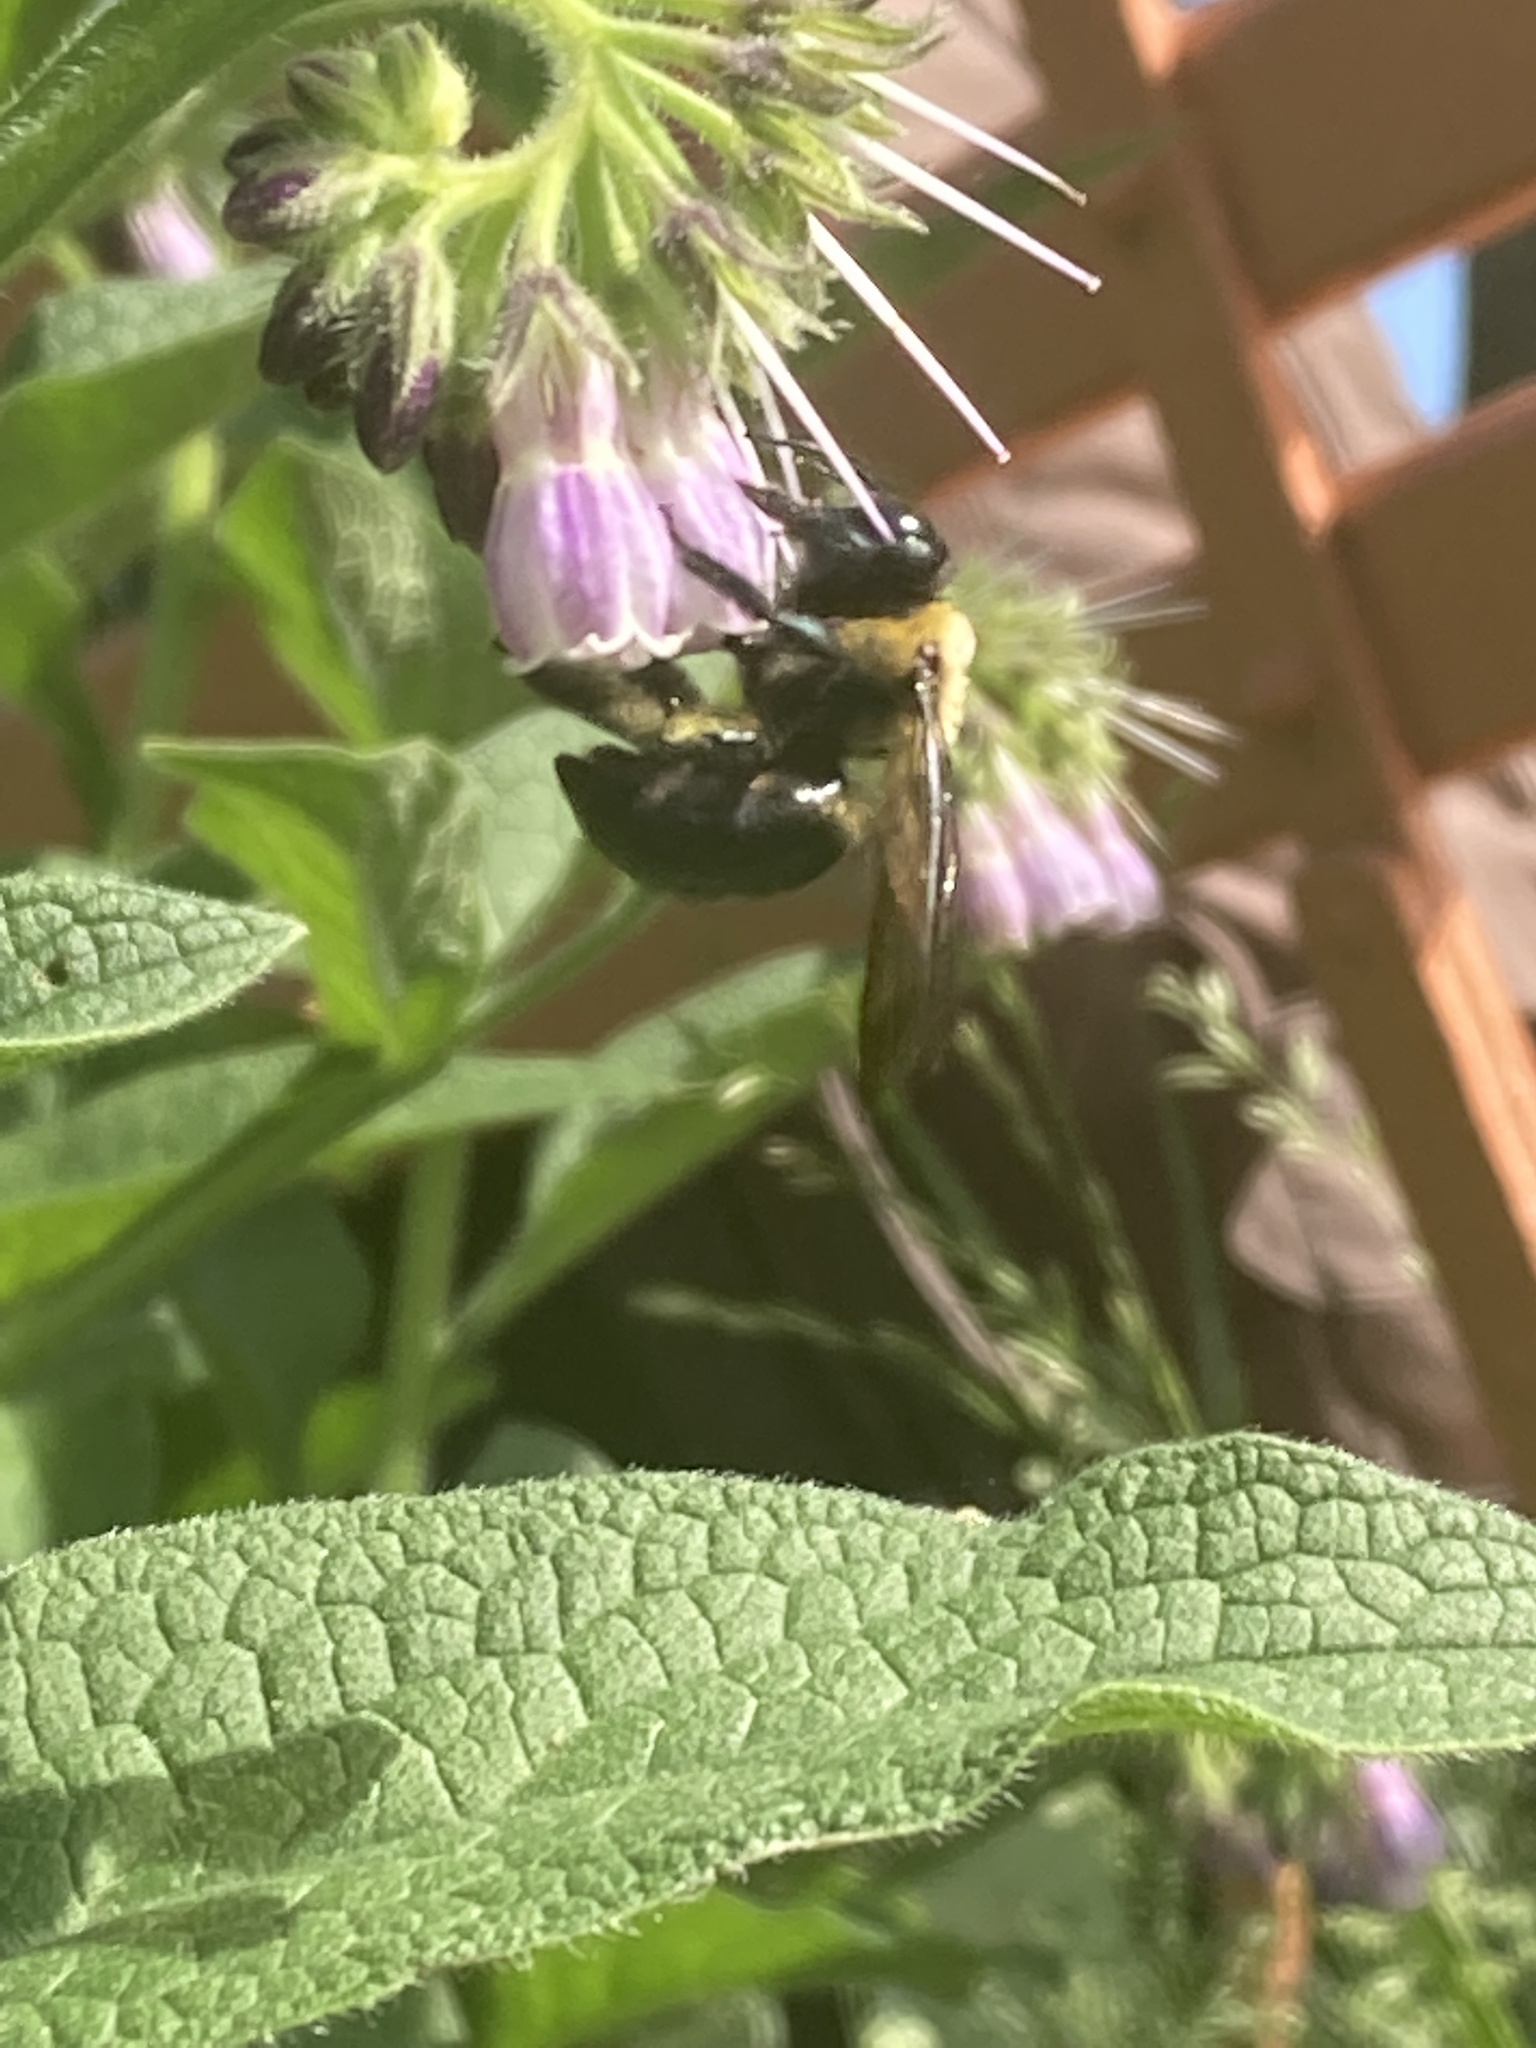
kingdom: Animalia
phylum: Arthropoda
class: Insecta
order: Hymenoptera
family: Apidae
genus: Xylocopa
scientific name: Xylocopa virginica
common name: Carpenter bee
